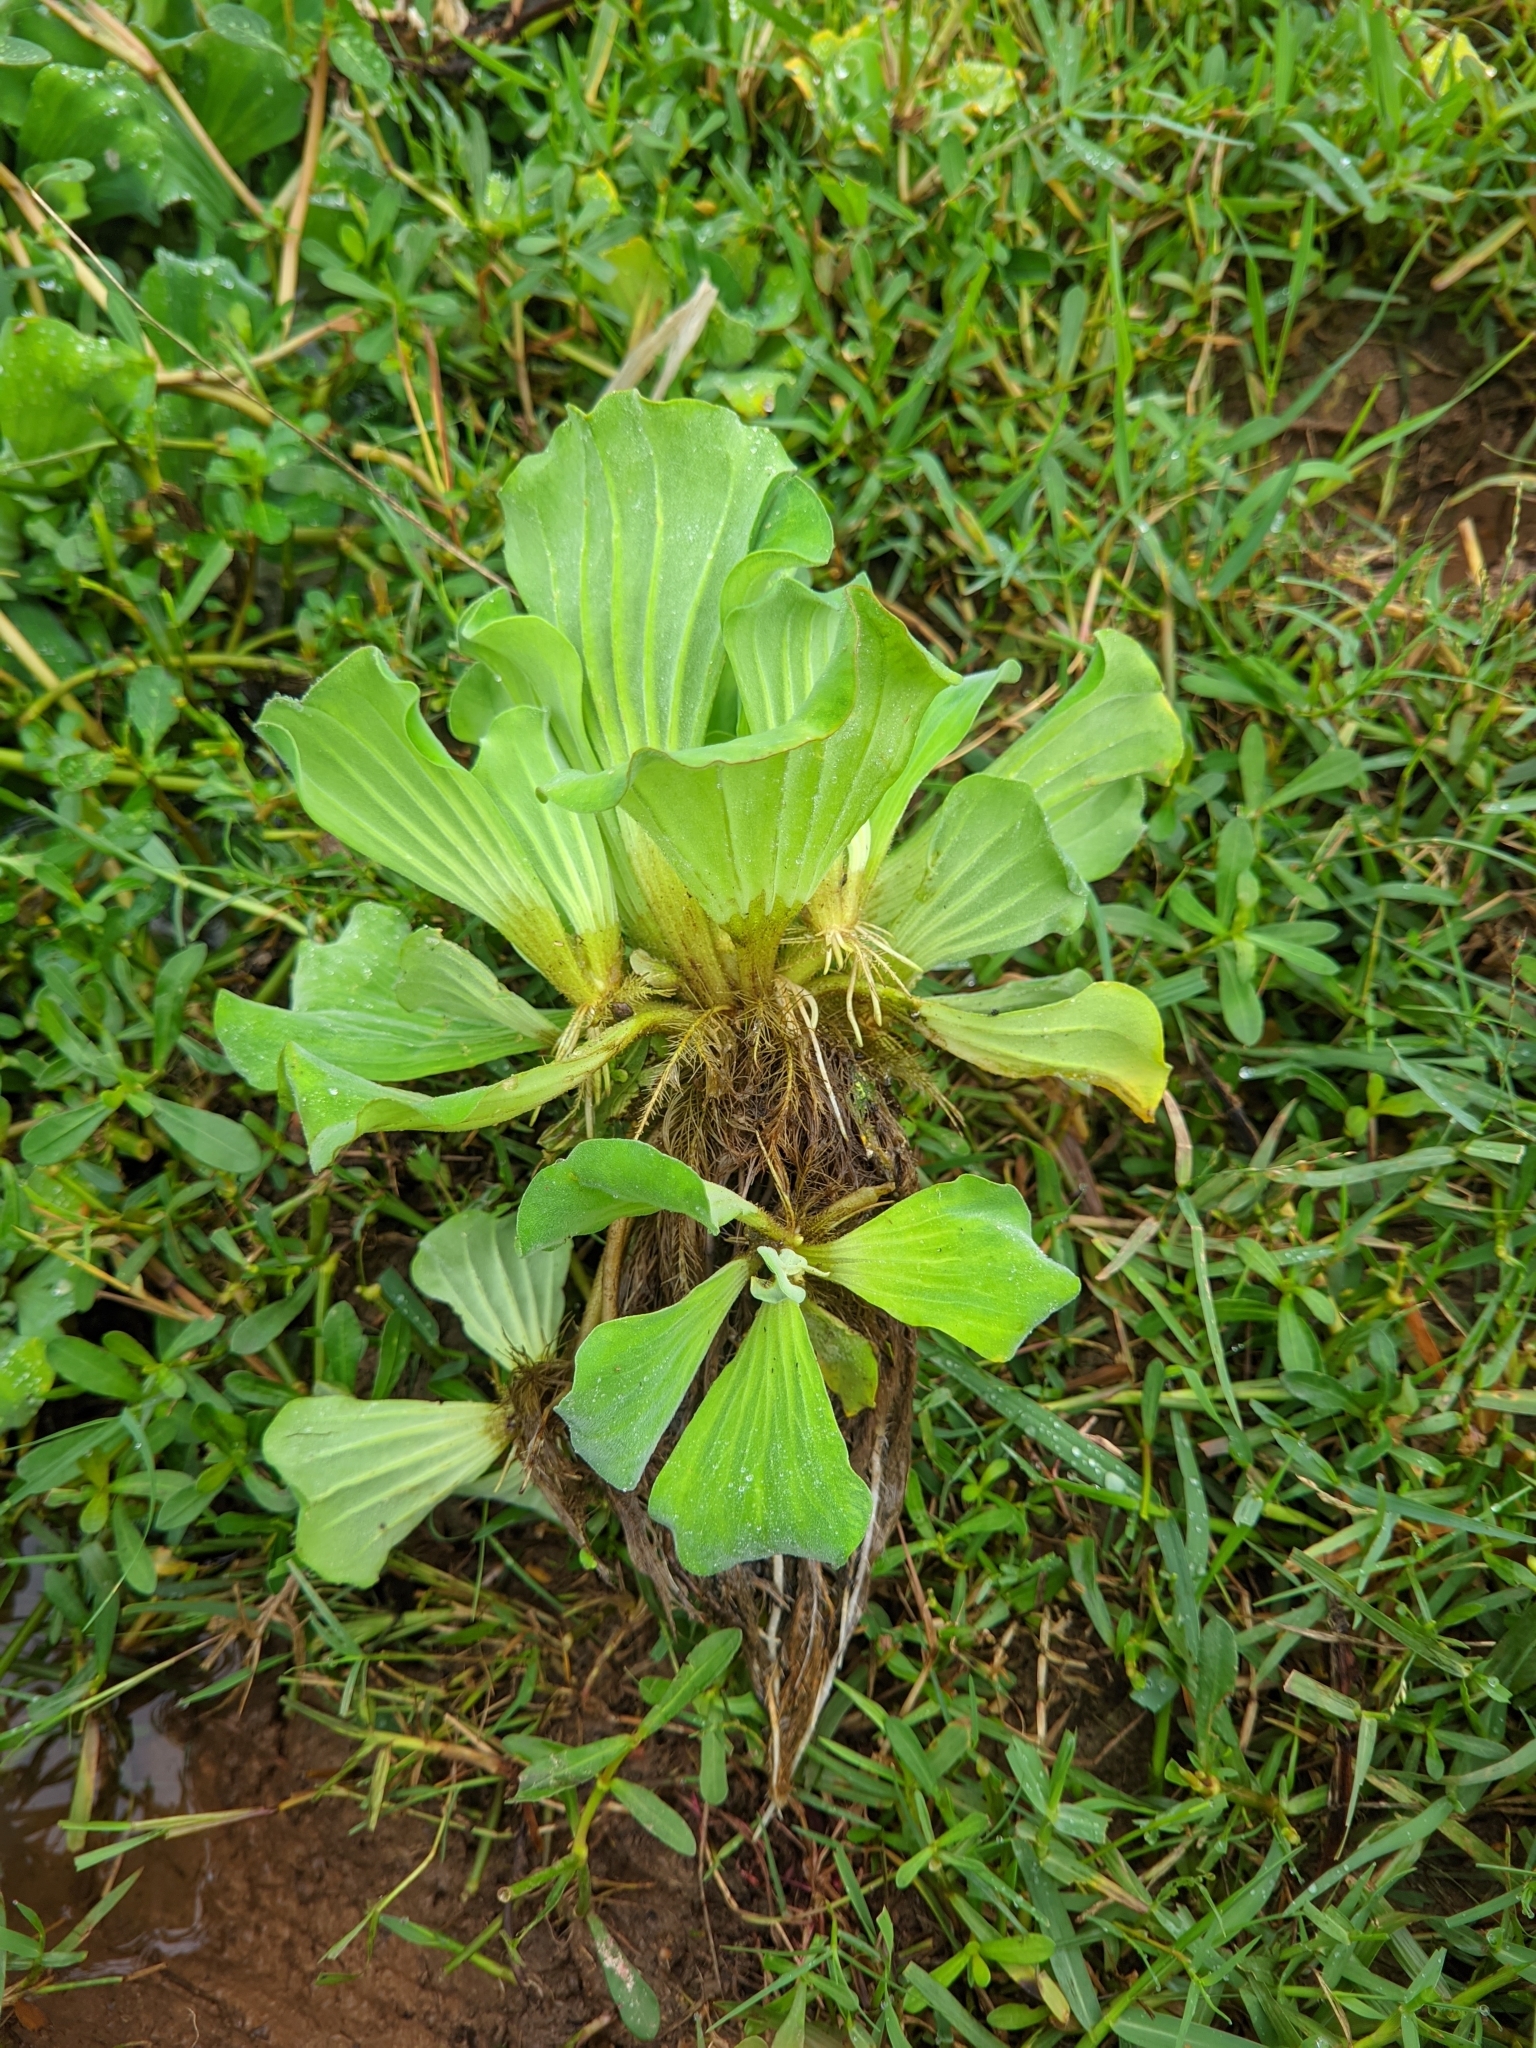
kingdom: Plantae
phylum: Tracheophyta
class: Liliopsida
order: Alismatales
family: Araceae
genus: Pistia
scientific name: Pistia stratiotes
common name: Water lettuce
